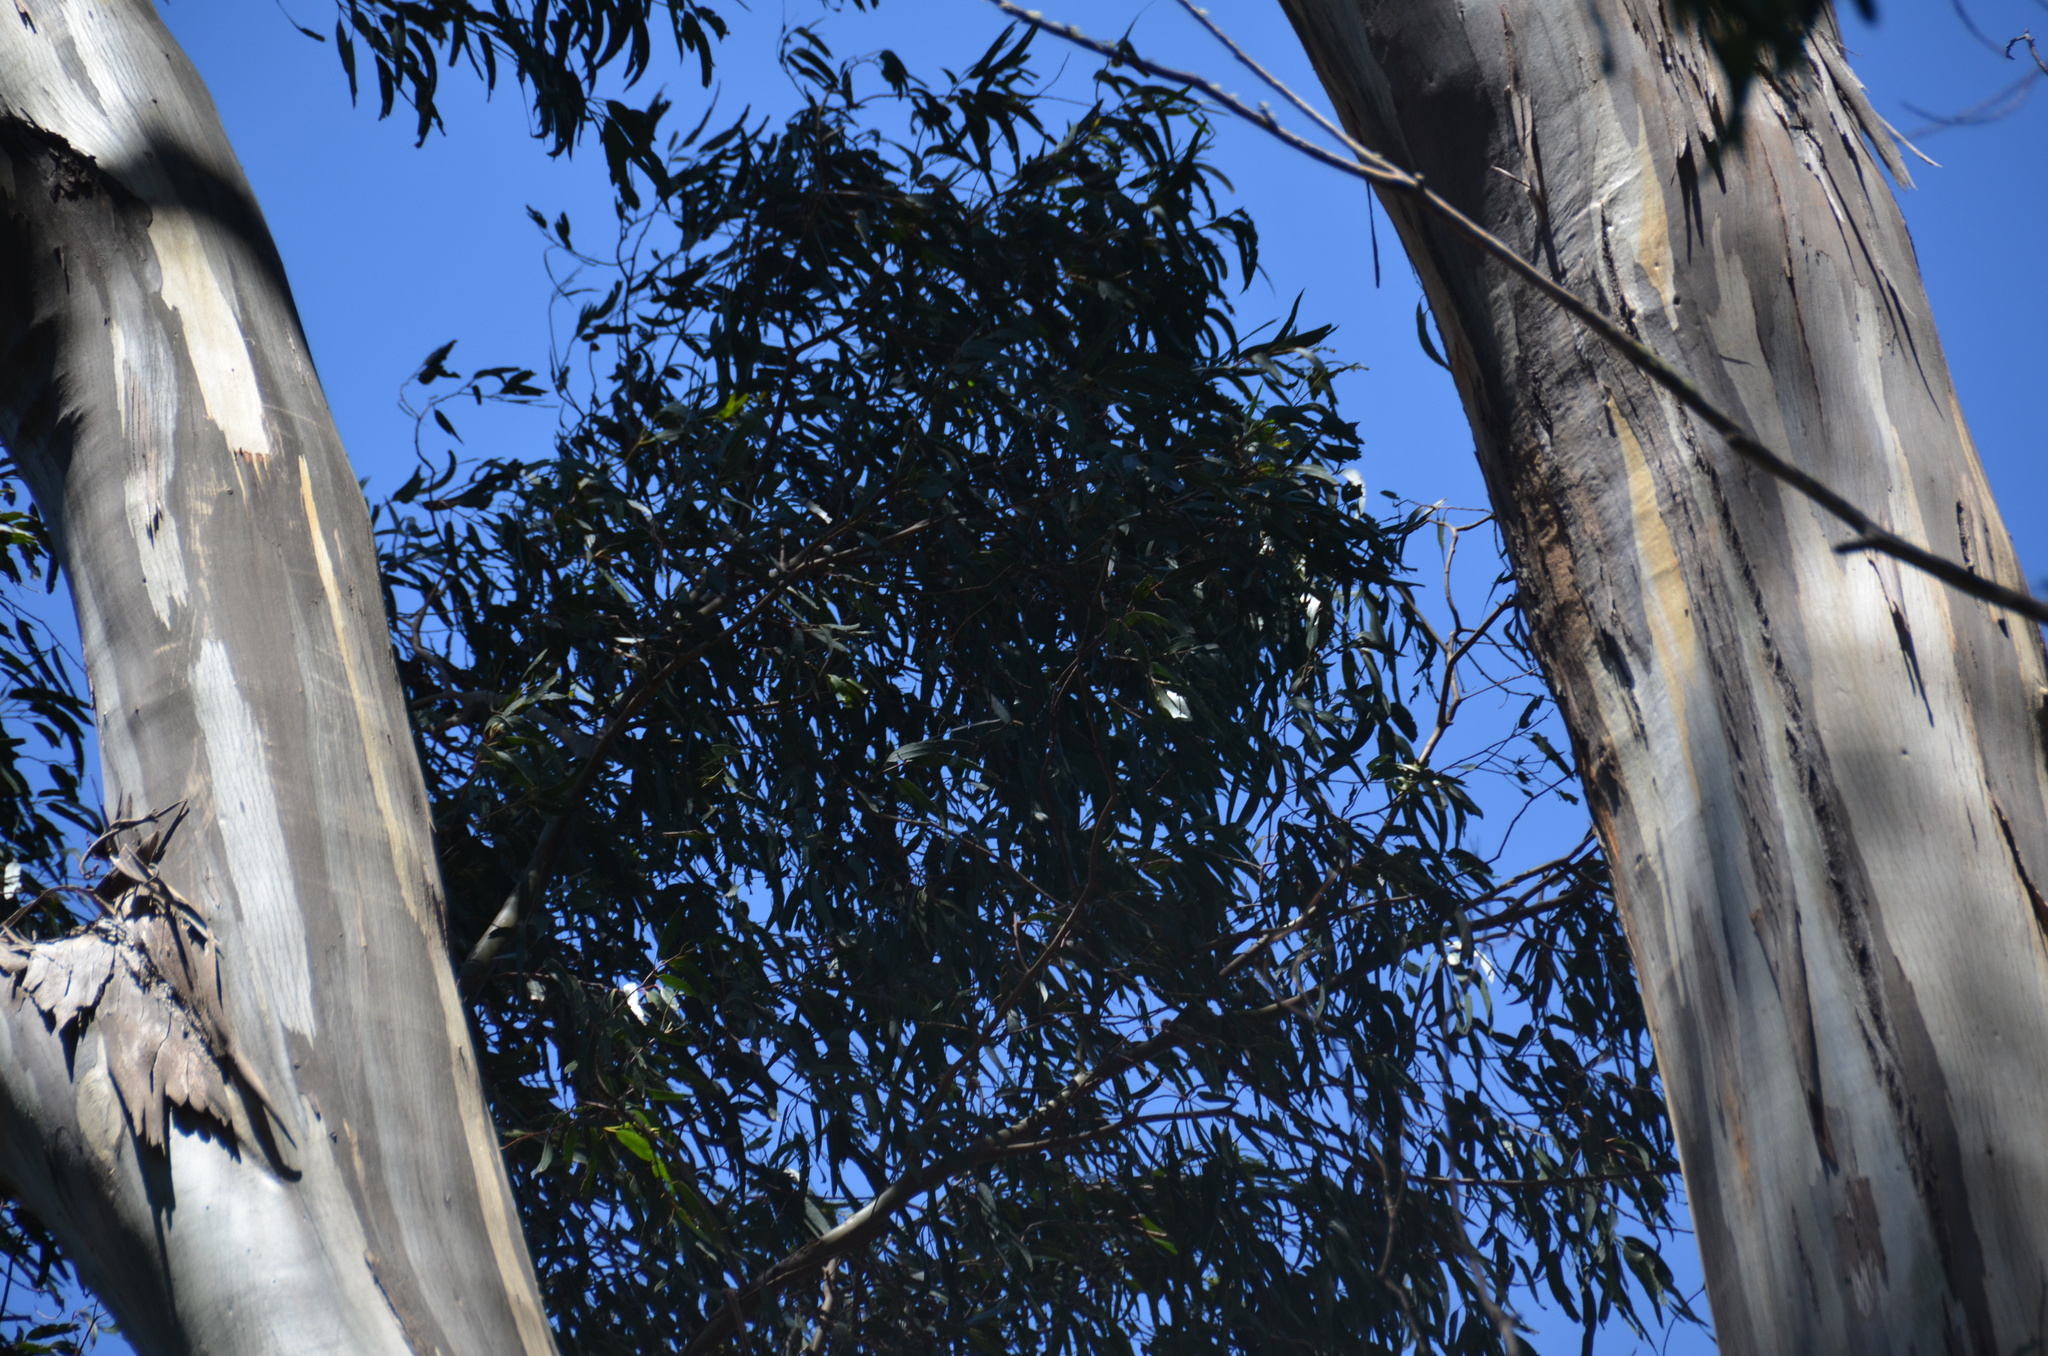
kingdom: Plantae
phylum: Tracheophyta
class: Magnoliopsida
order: Myrtales
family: Myrtaceae
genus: Eucalyptus
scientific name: Eucalyptus deglupta
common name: Mindanao gum
